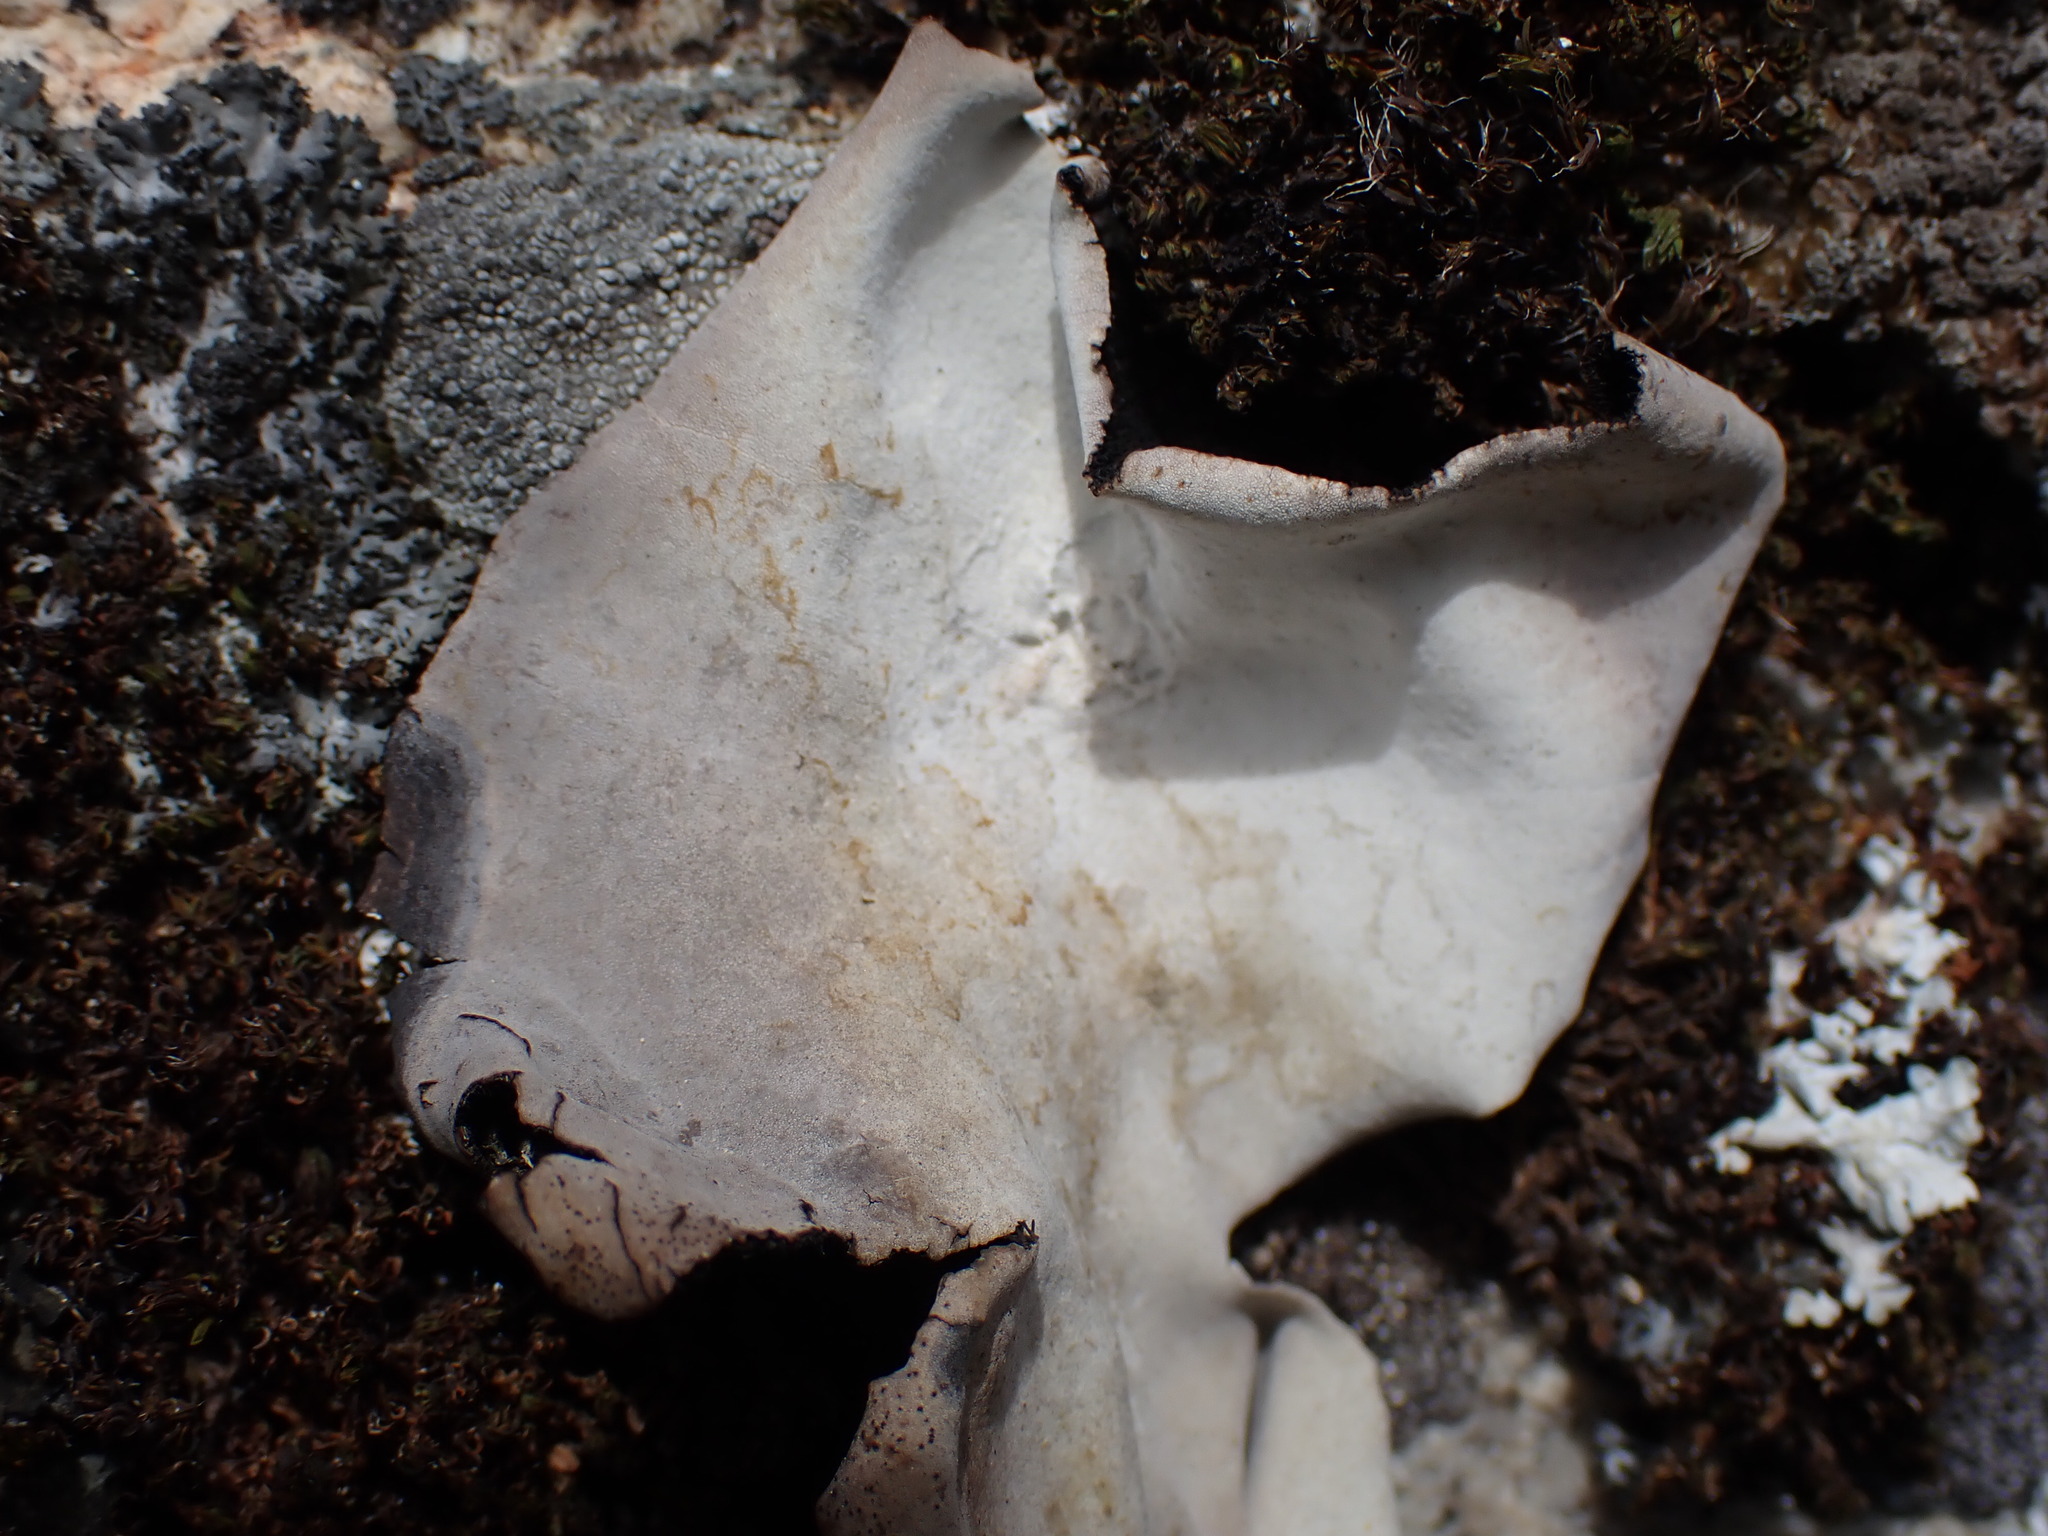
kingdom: Fungi
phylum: Ascomycota
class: Lecanoromycetes
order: Umbilicariales
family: Umbilicariaceae
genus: Umbilicaria
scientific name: Umbilicaria americana
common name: Frosted rock tripe
